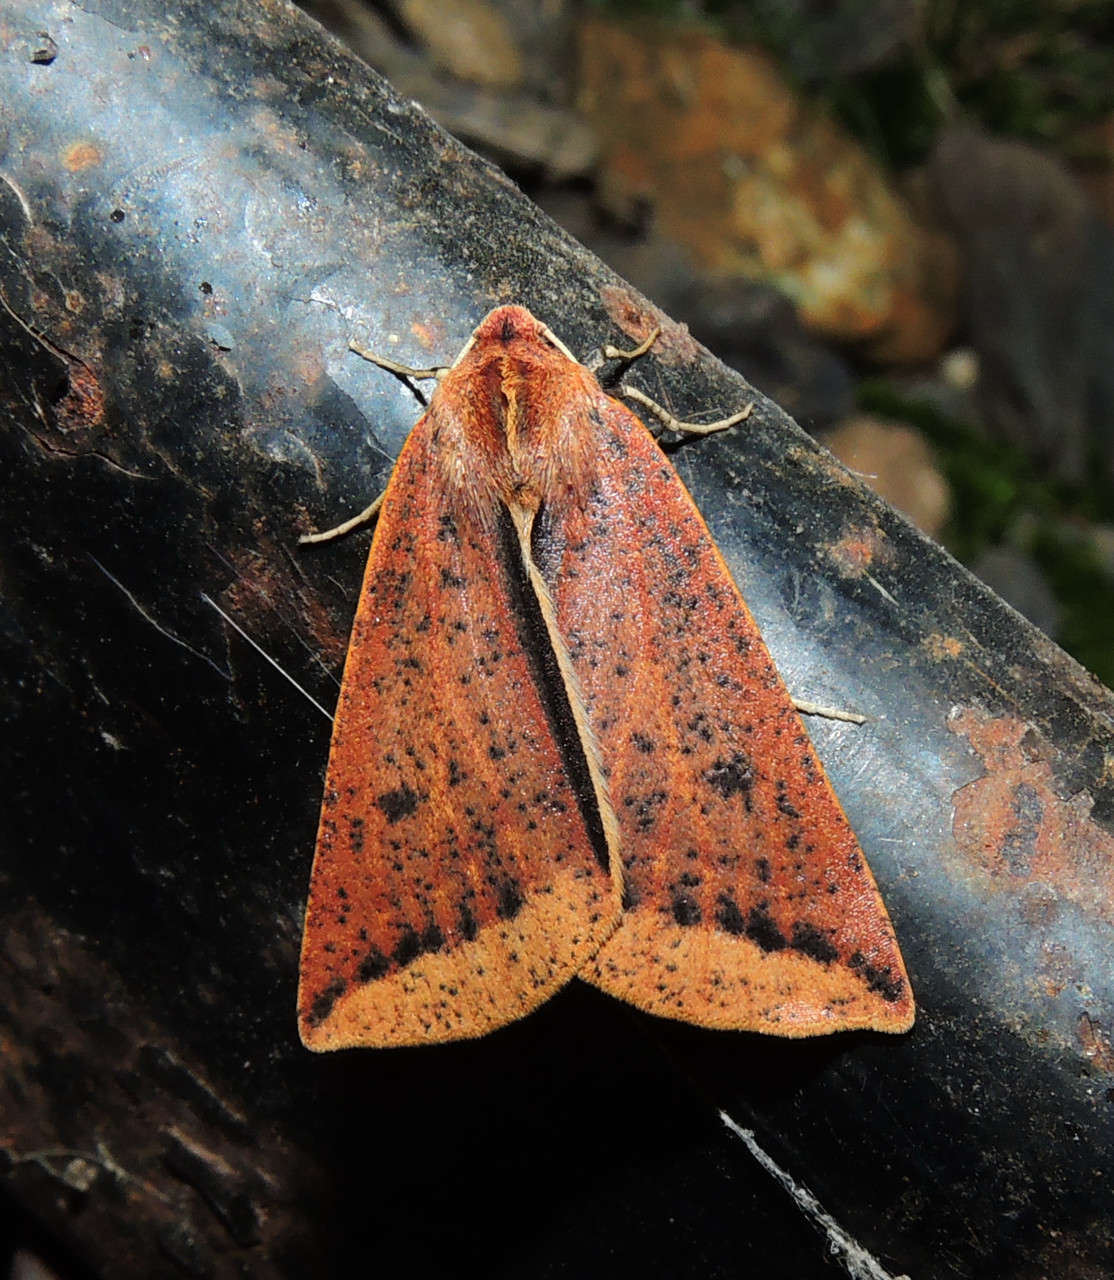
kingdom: Animalia
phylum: Arthropoda
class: Insecta
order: Lepidoptera
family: Geometridae
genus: Cycloprorodes
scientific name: Cycloprorodes melanoxysta
